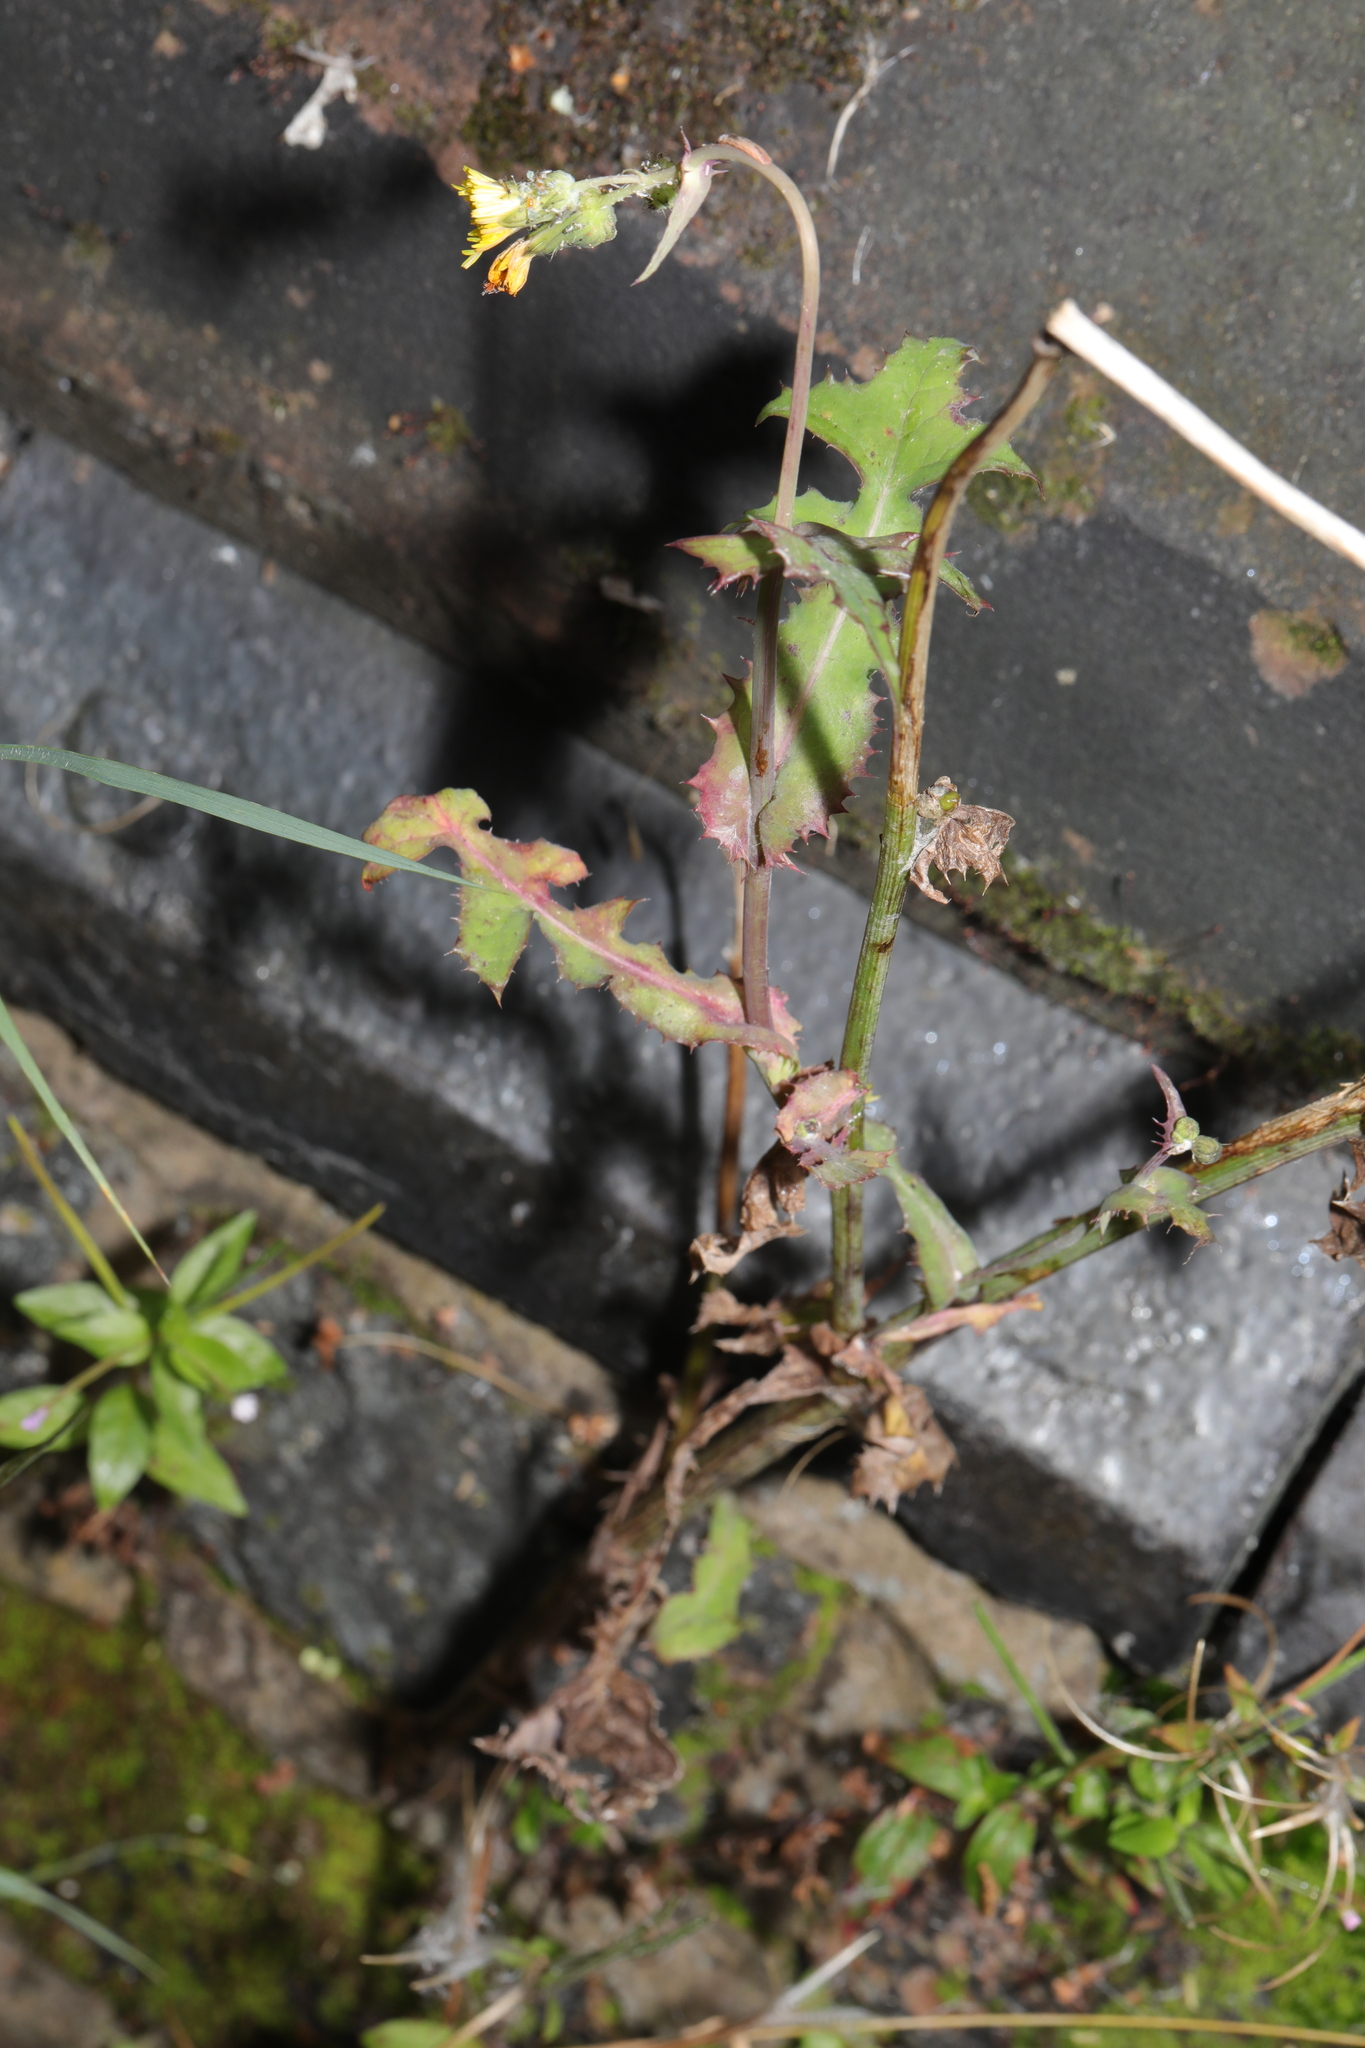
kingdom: Plantae
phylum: Tracheophyta
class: Magnoliopsida
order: Asterales
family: Asteraceae
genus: Sonchus
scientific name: Sonchus oleraceus
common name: Common sowthistle
